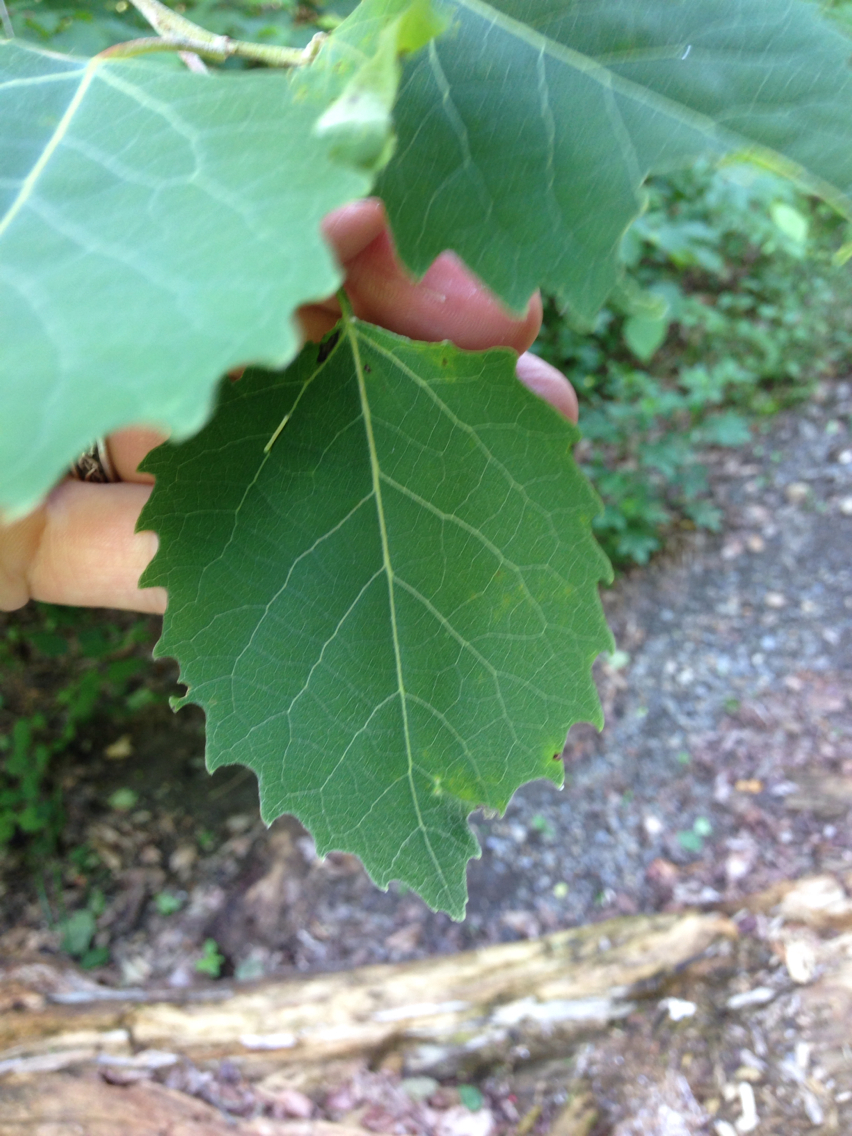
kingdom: Plantae
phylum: Tracheophyta
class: Magnoliopsida
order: Malpighiales
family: Salicaceae
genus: Populus
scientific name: Populus grandidentata
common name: Bigtooth aspen
